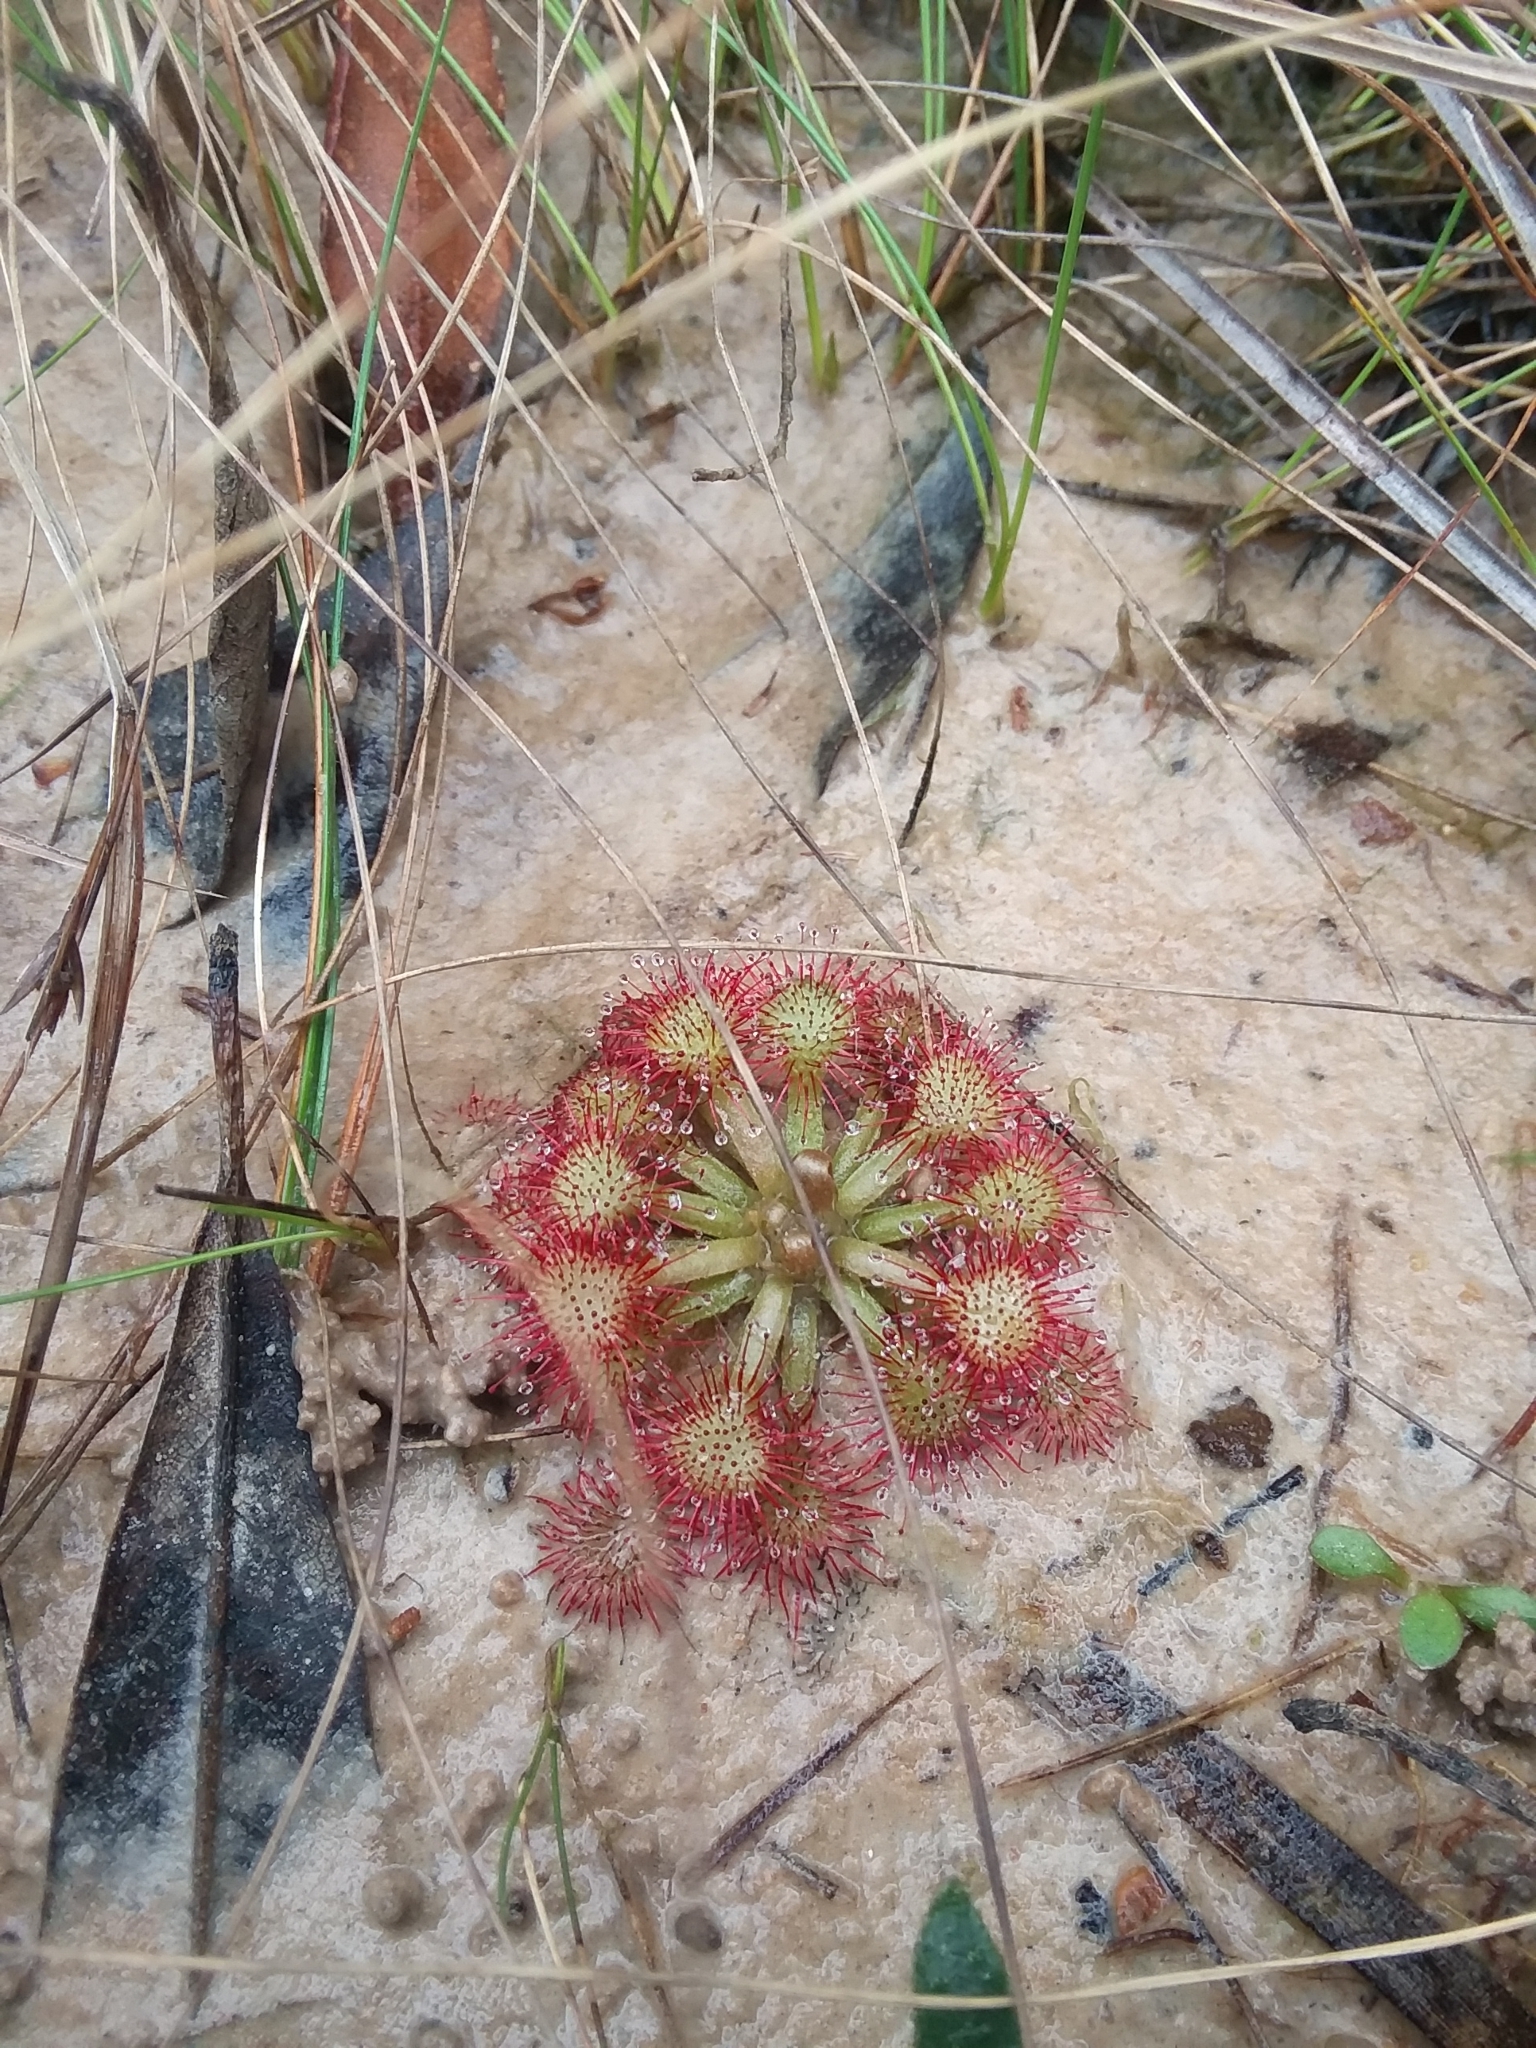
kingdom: Plantae
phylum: Tracheophyta
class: Magnoliopsida
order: Caryophyllales
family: Droseraceae
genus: Drosera
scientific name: Drosera capillaris
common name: Pink sundew
